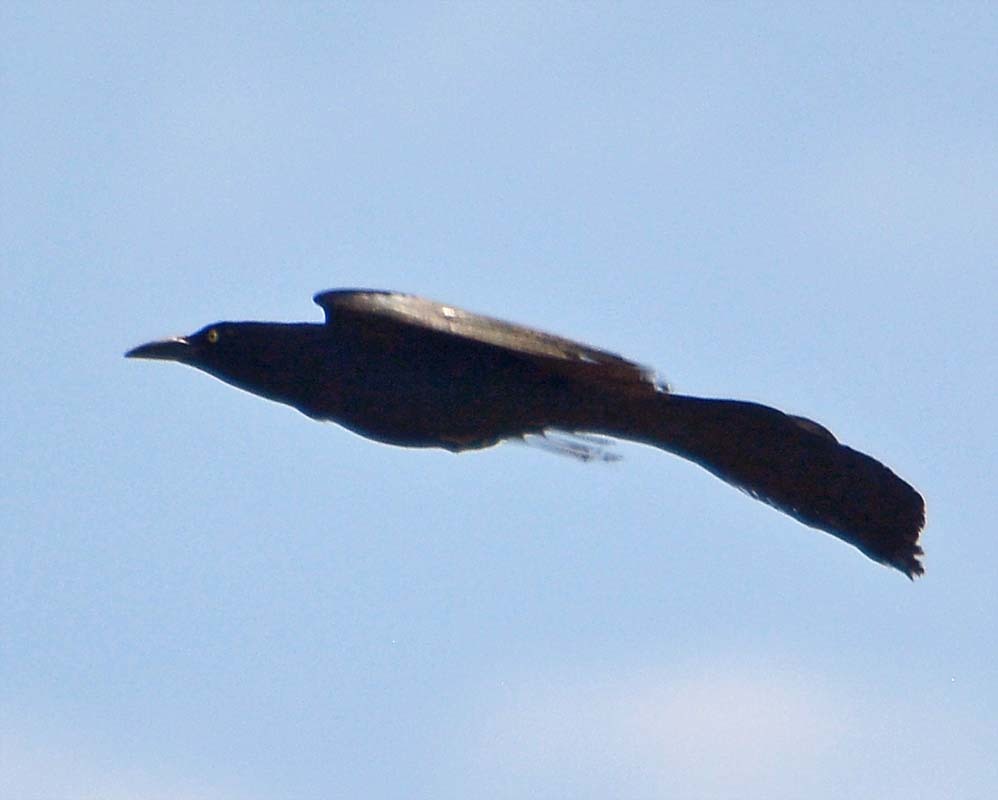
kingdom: Animalia
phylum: Chordata
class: Aves
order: Passeriformes
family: Icteridae
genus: Quiscalus
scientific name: Quiscalus mexicanus
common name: Great-tailed grackle
